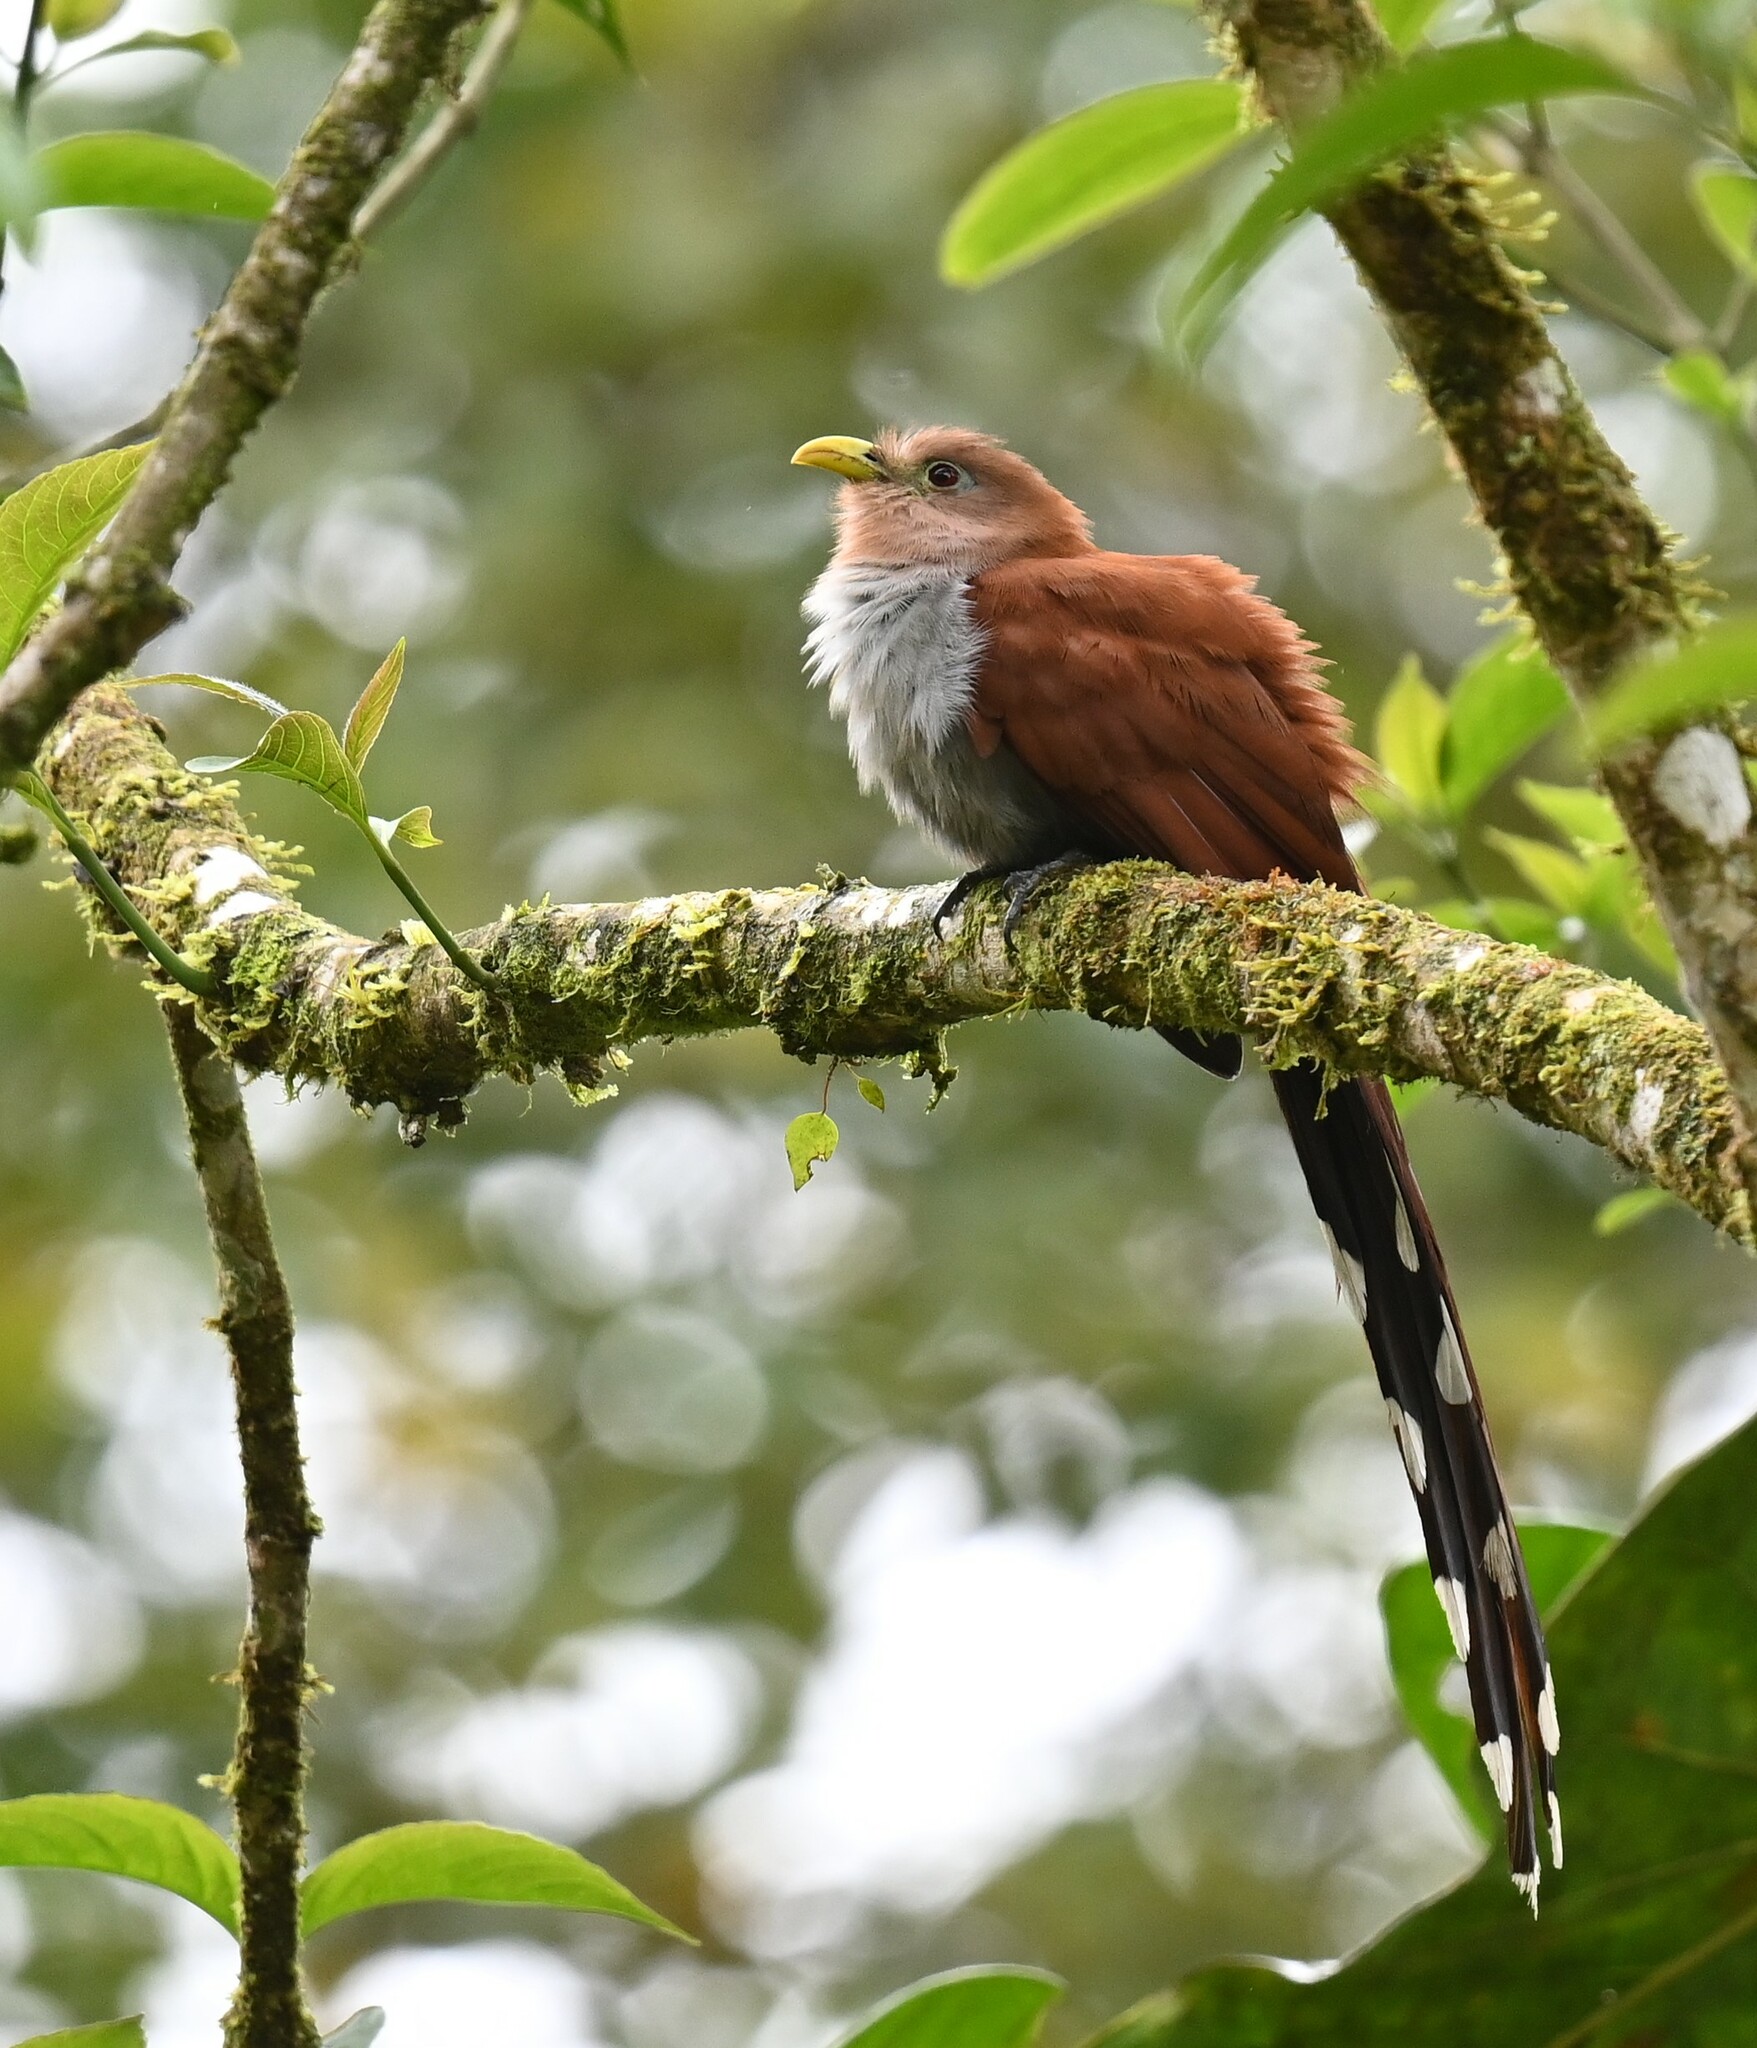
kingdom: Animalia
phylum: Chordata
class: Aves
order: Cuculiformes
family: Cuculidae
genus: Piaya
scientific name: Piaya cayana
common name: Squirrel cuckoo
